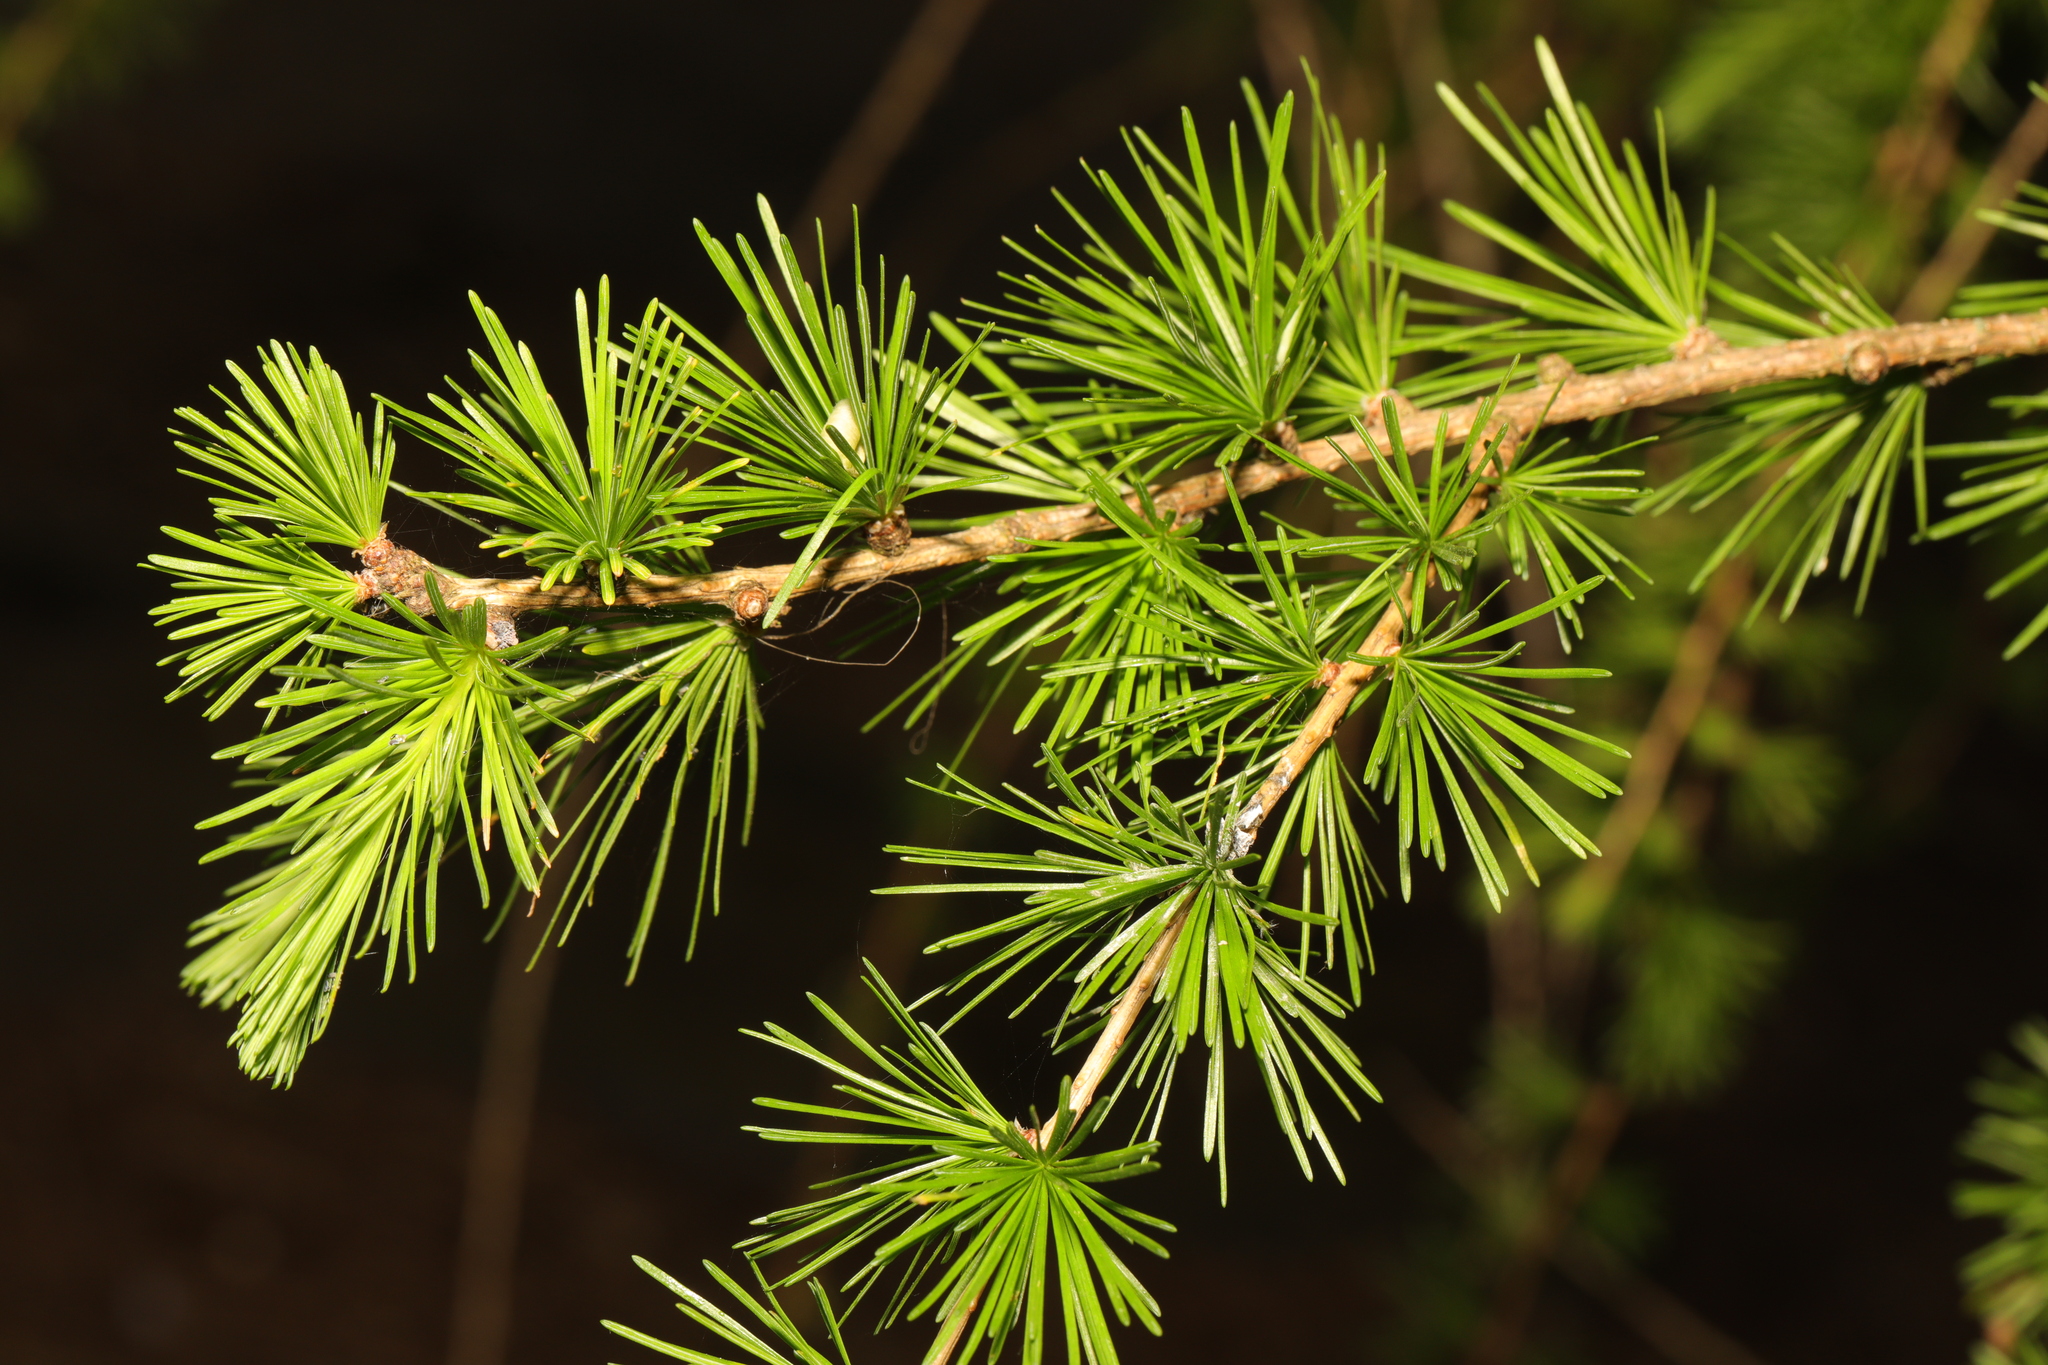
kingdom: Plantae
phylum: Tracheophyta
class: Pinopsida
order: Pinales
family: Pinaceae
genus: Larix
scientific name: Larix decidua
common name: European larch
